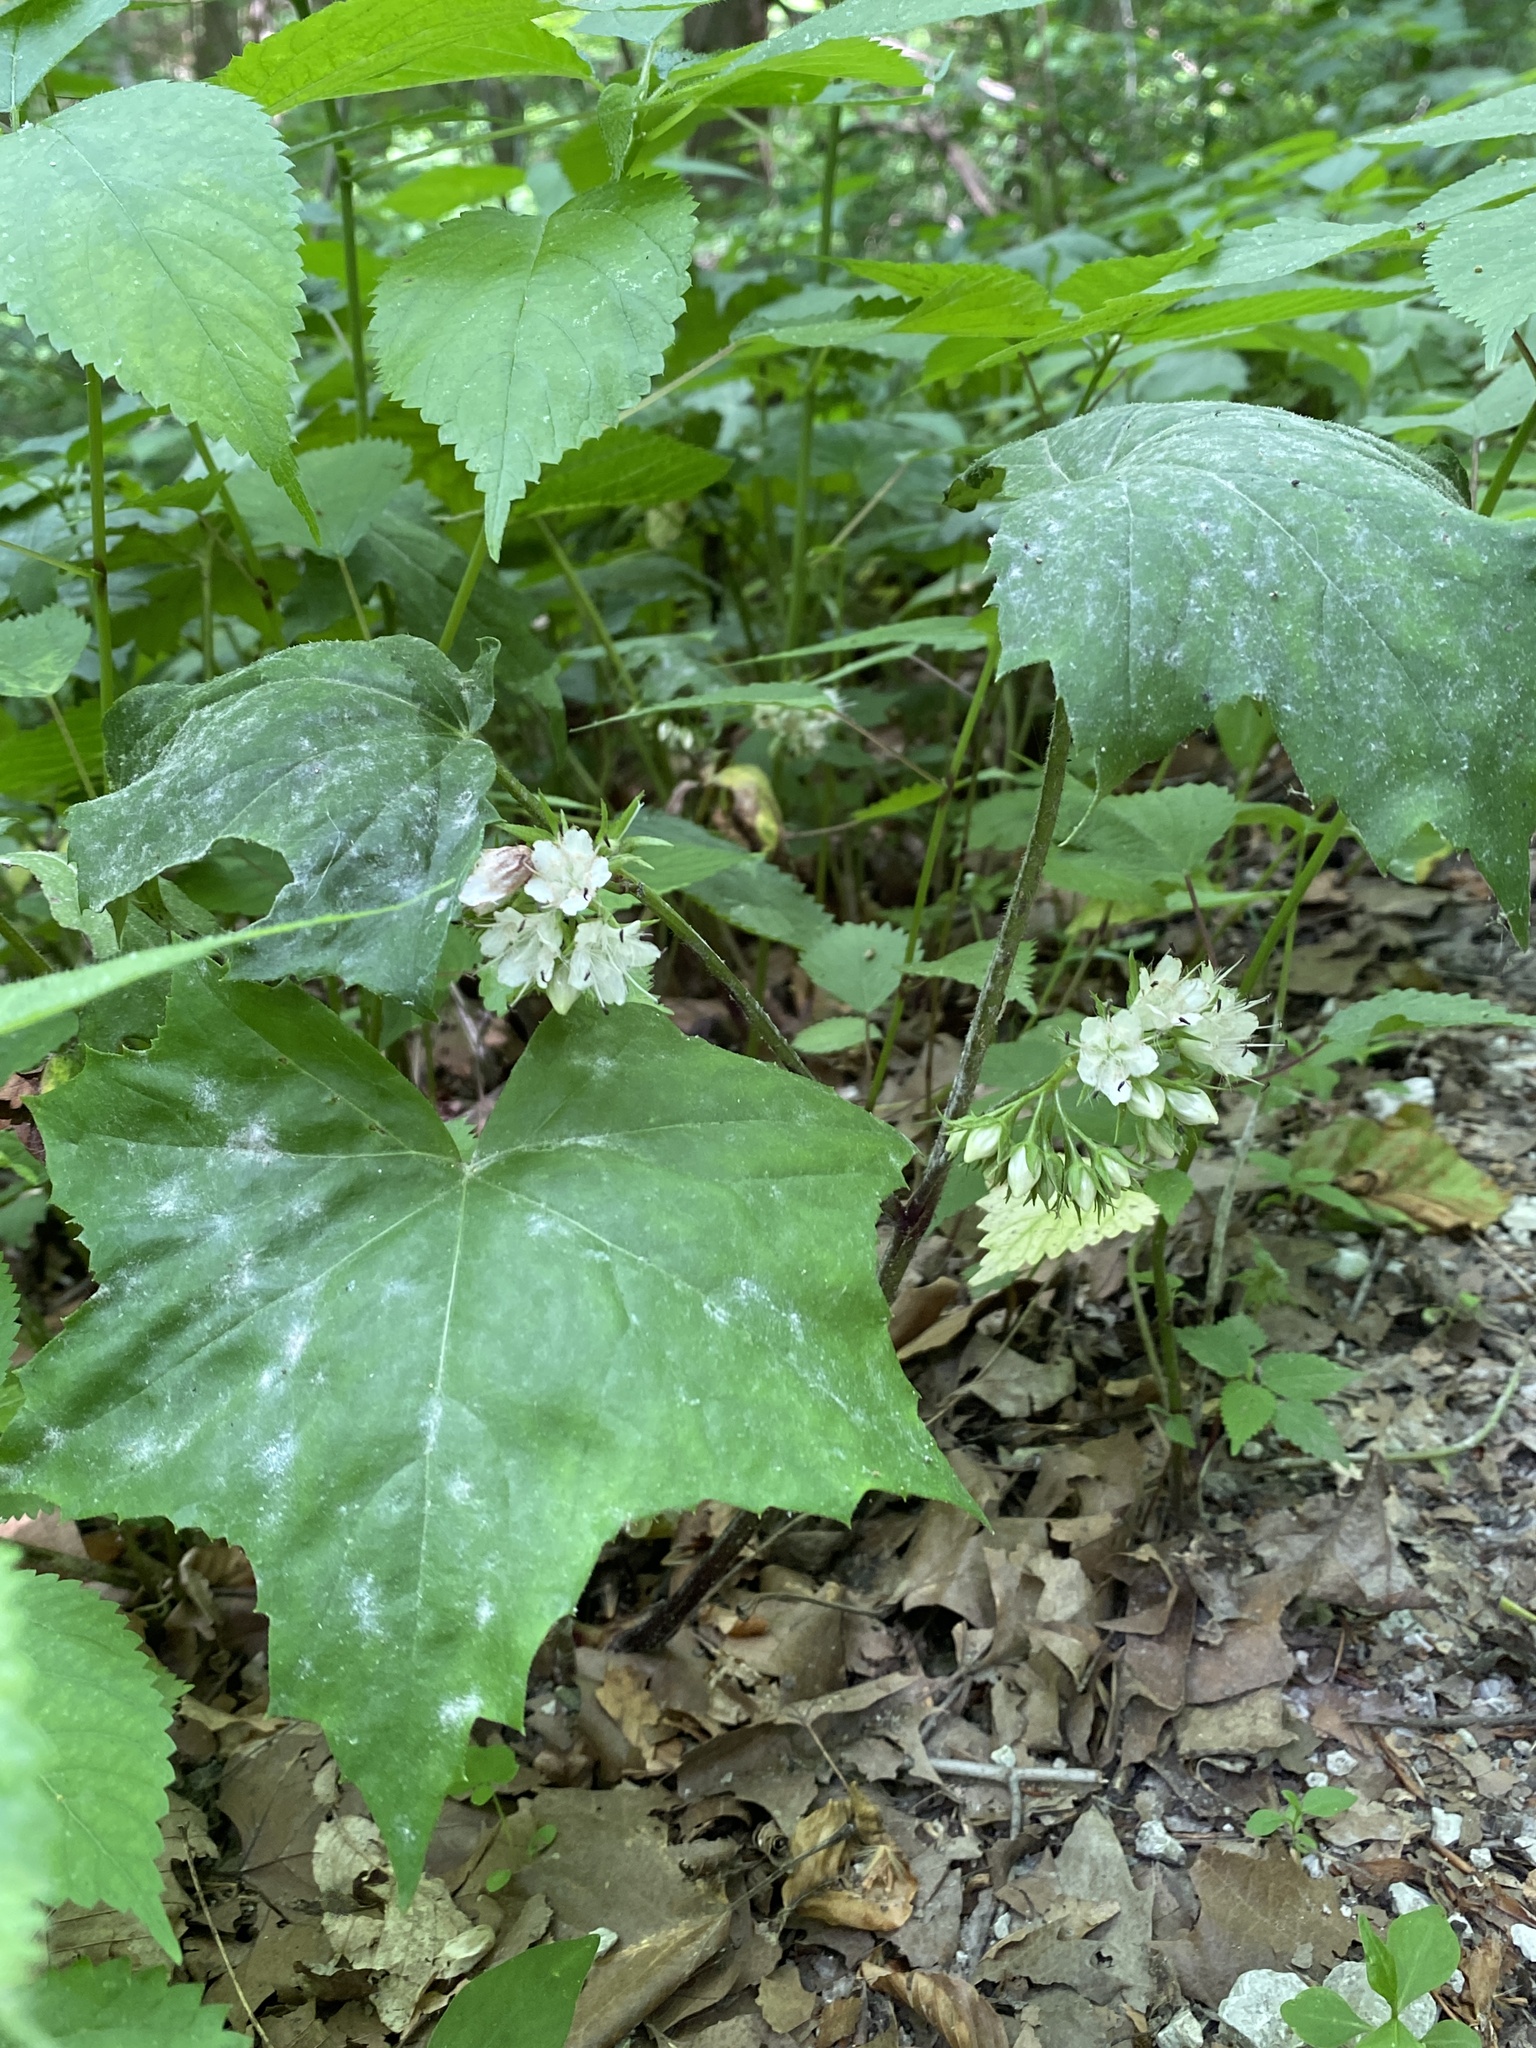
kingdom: Plantae
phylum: Tracheophyta
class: Magnoliopsida
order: Boraginales
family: Hydrophyllaceae
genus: Hydrophyllum
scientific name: Hydrophyllum canadense
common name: Canada waterleaf
